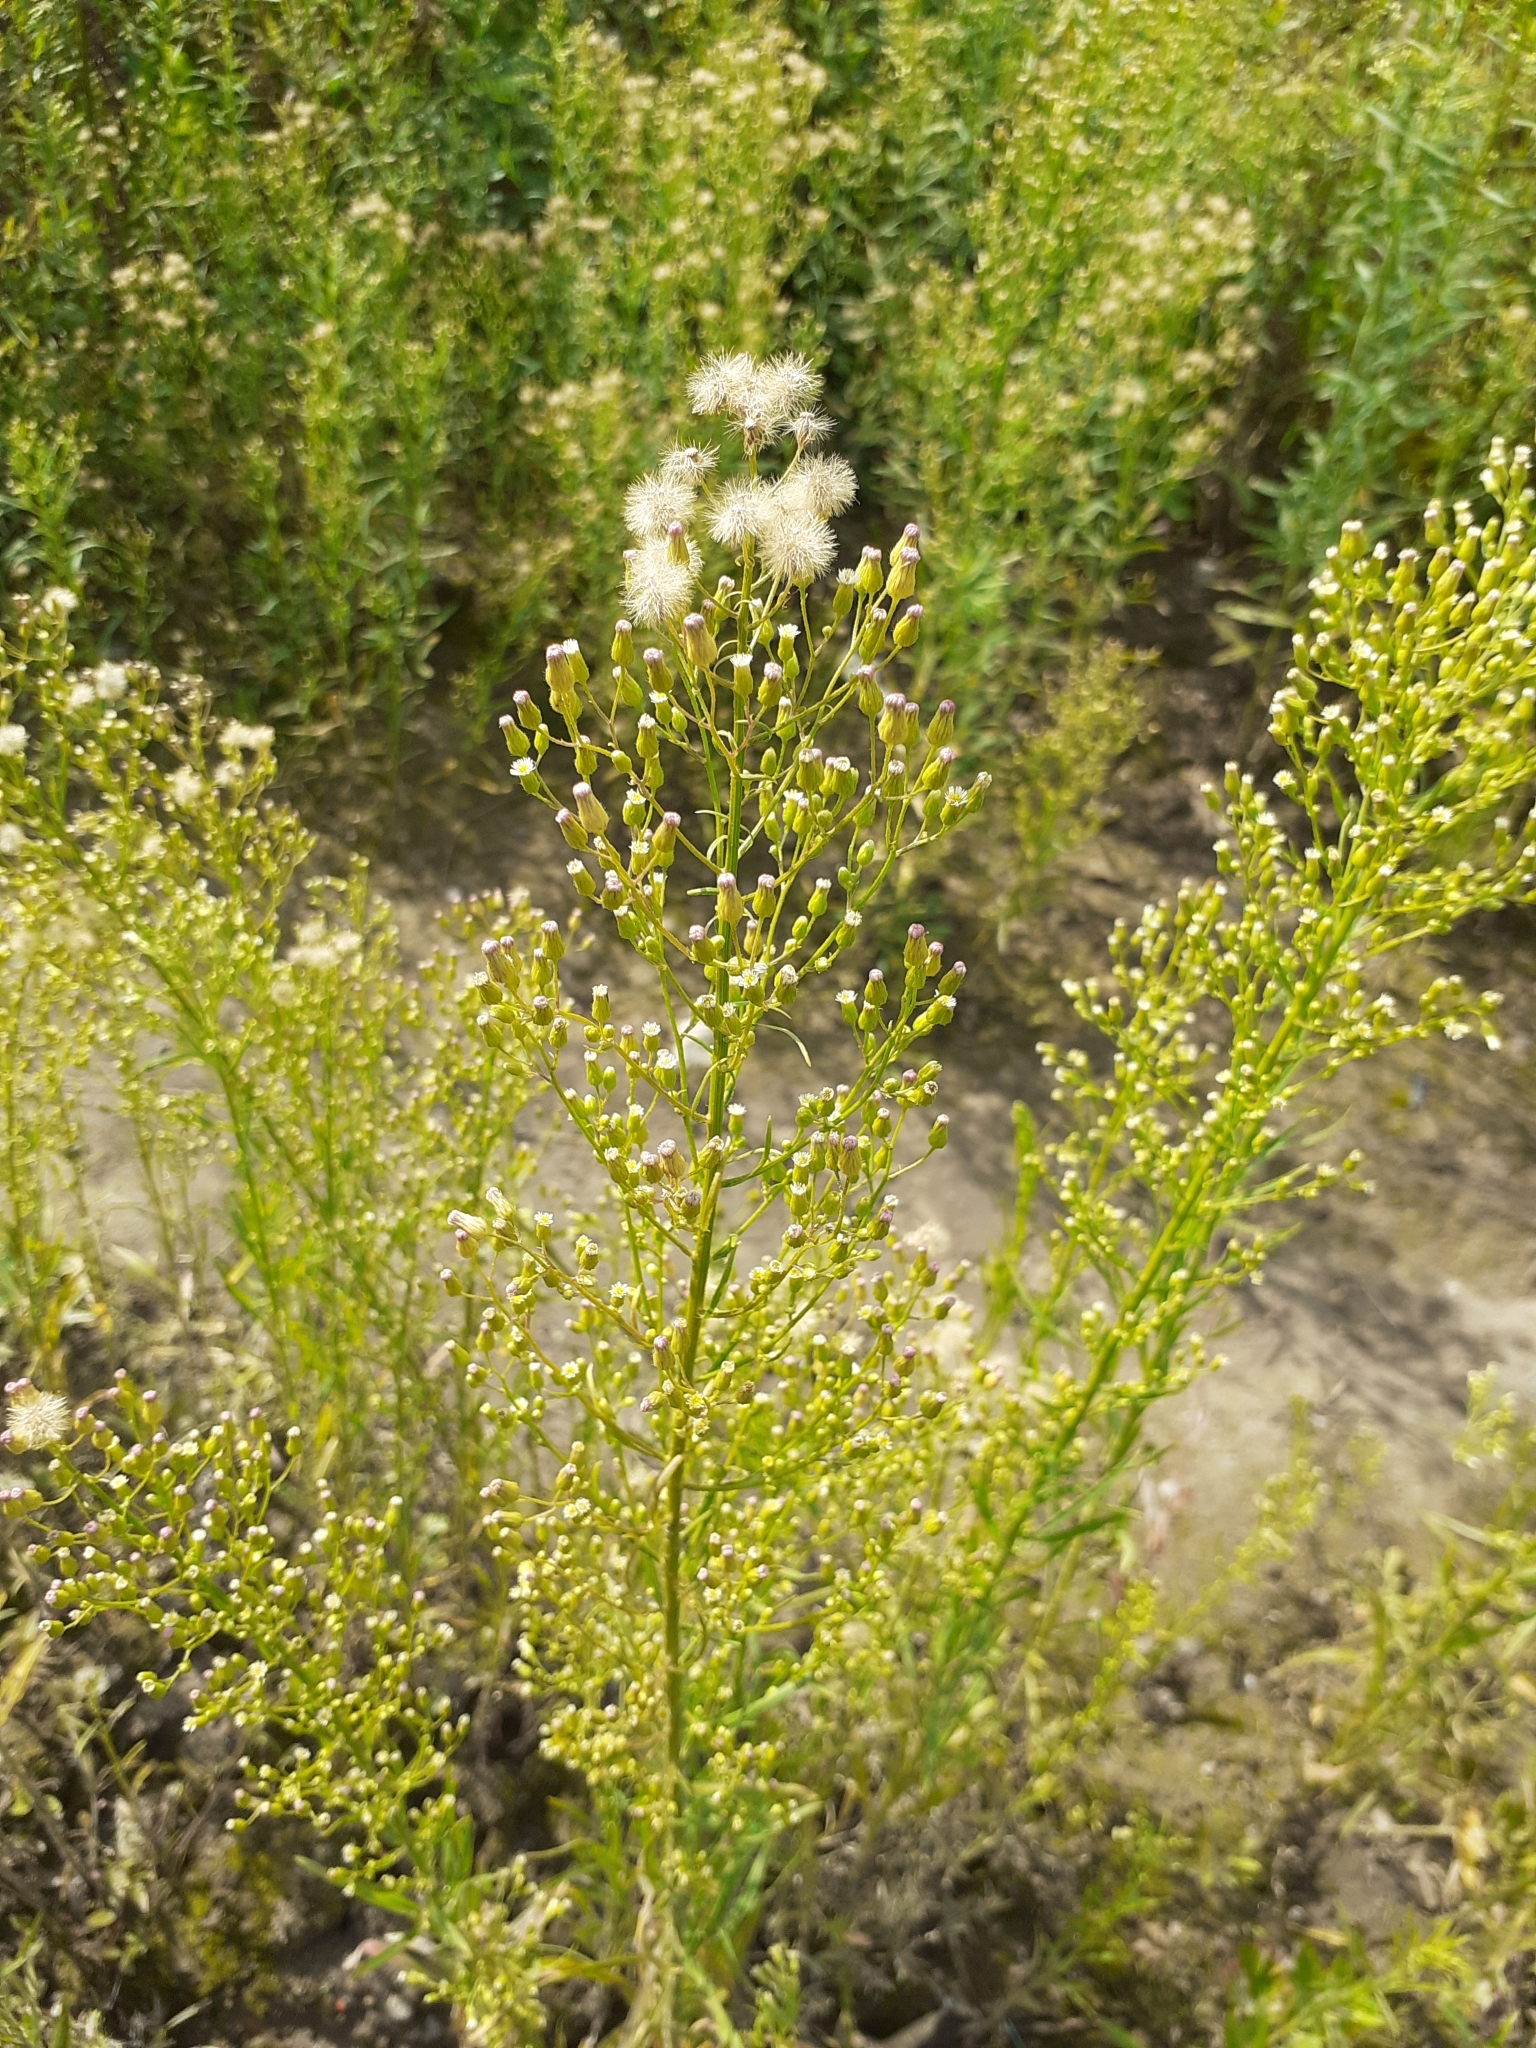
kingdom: Plantae
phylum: Tracheophyta
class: Magnoliopsida
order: Asterales
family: Asteraceae
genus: Erigeron
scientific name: Erigeron canadensis
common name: Canadian fleabane
